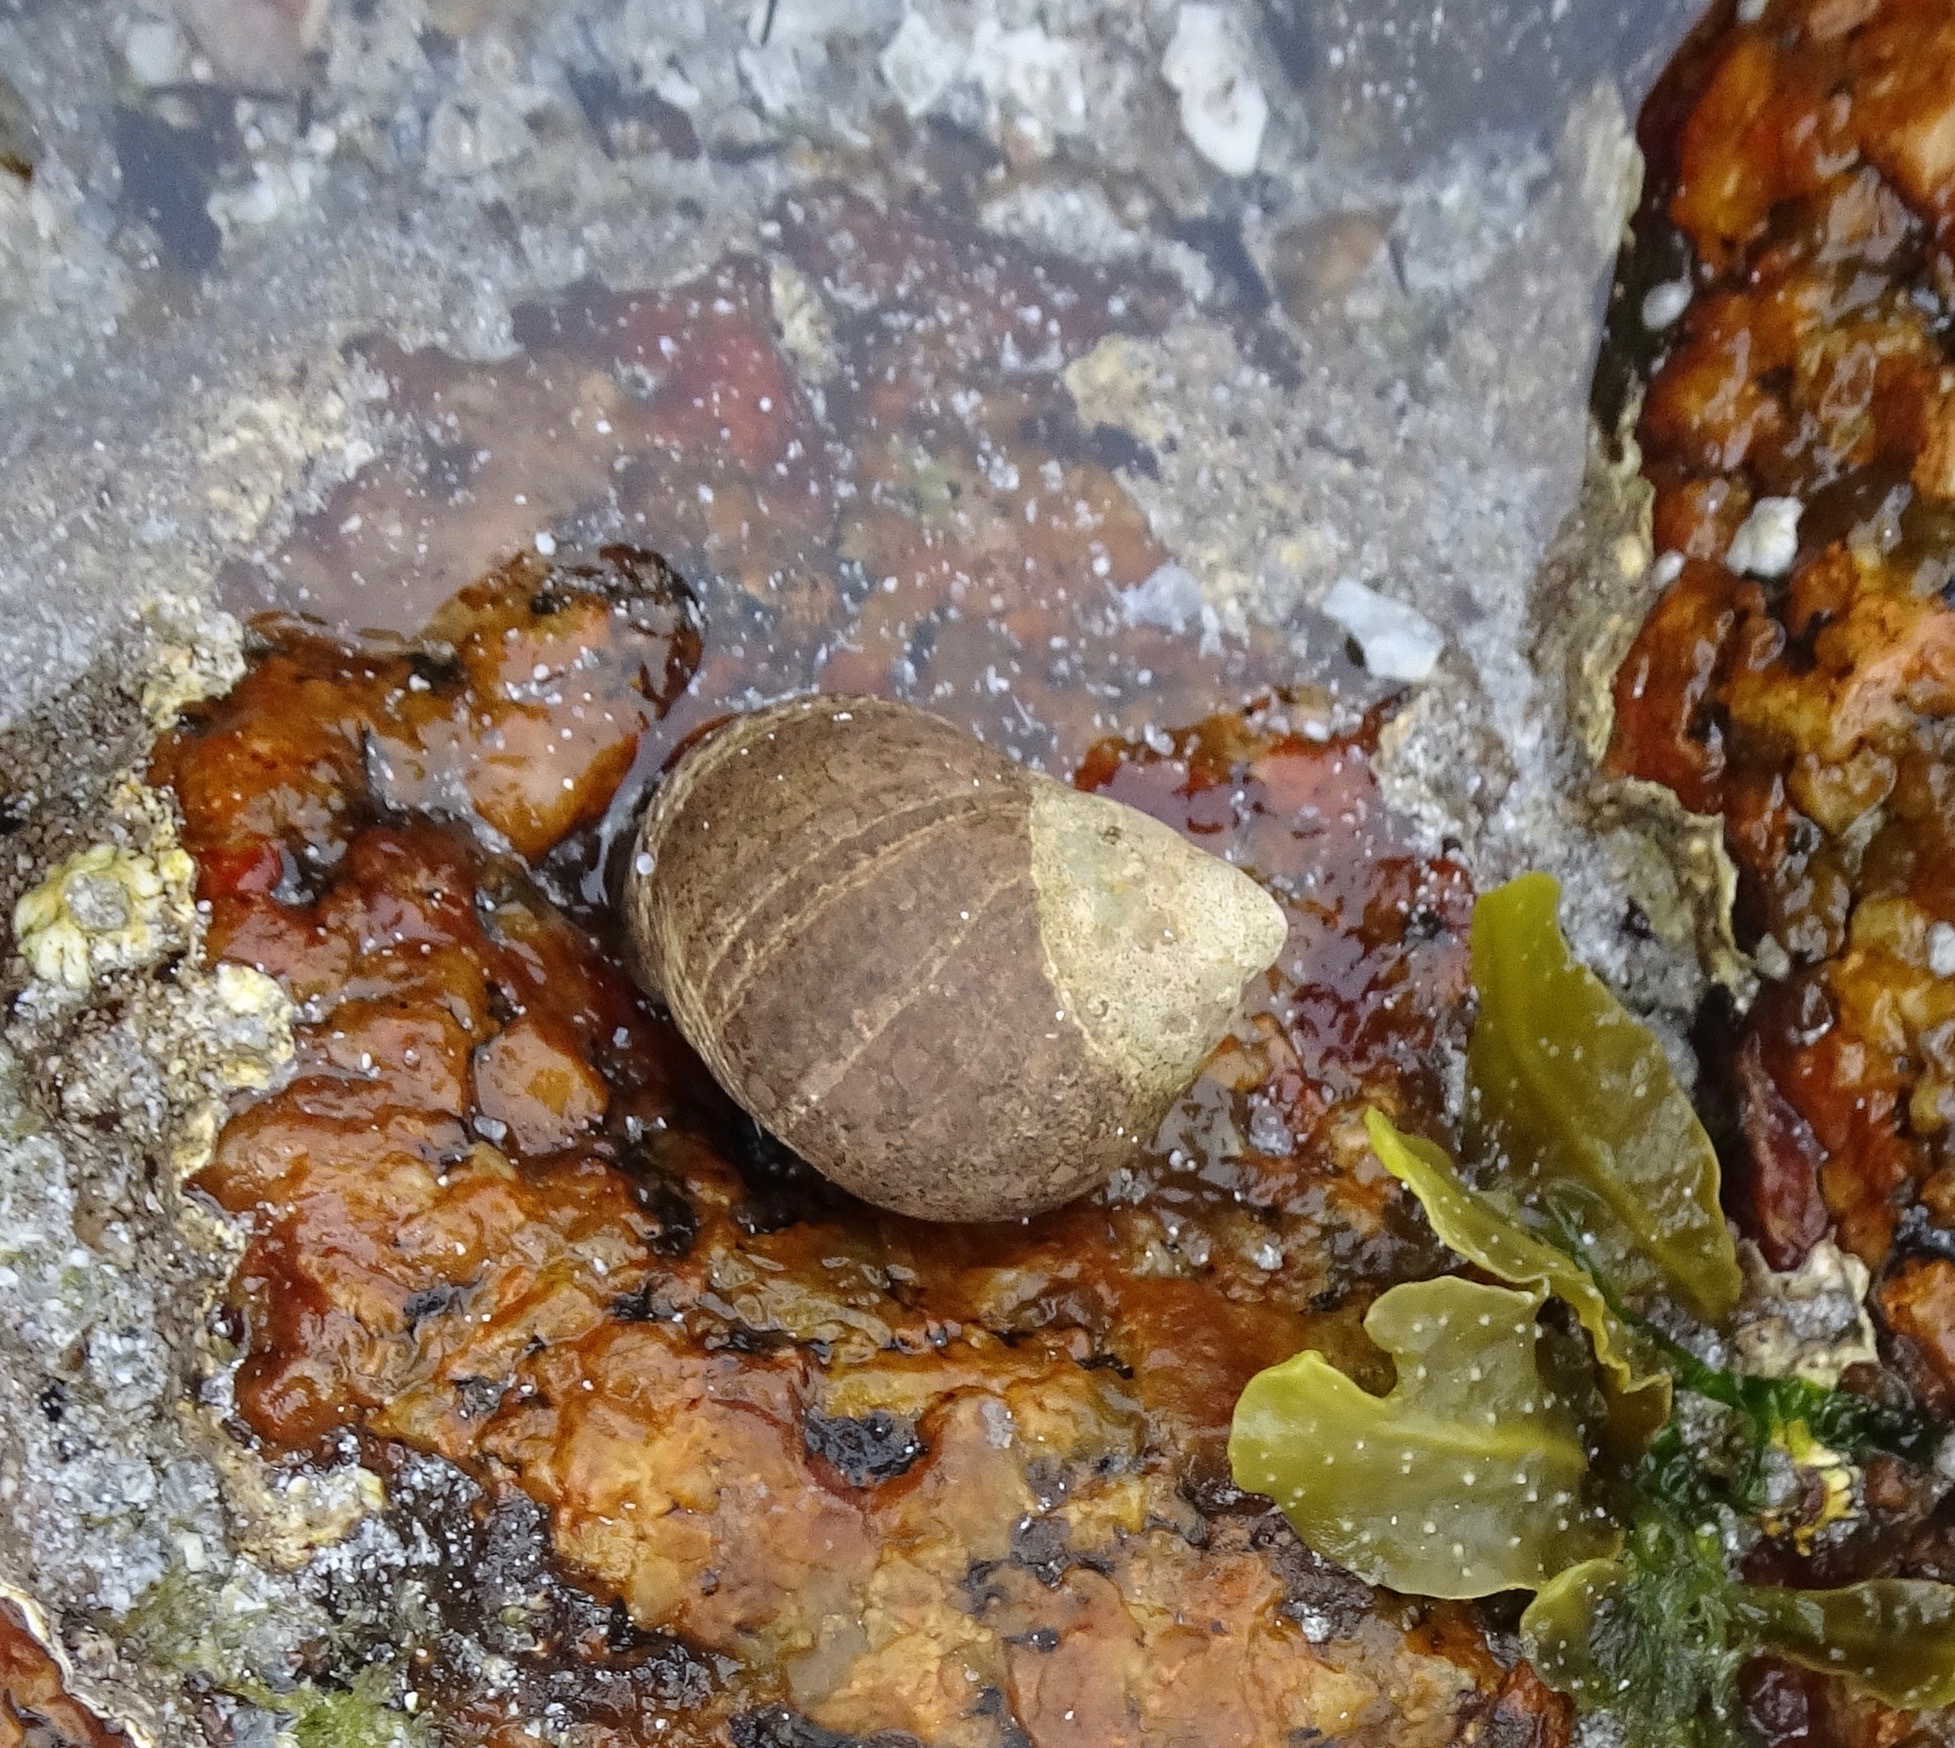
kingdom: Animalia
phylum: Mollusca
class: Gastropoda
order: Littorinimorpha
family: Littorinidae
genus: Littorina
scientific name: Littorina littorea
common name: Common periwinkle
